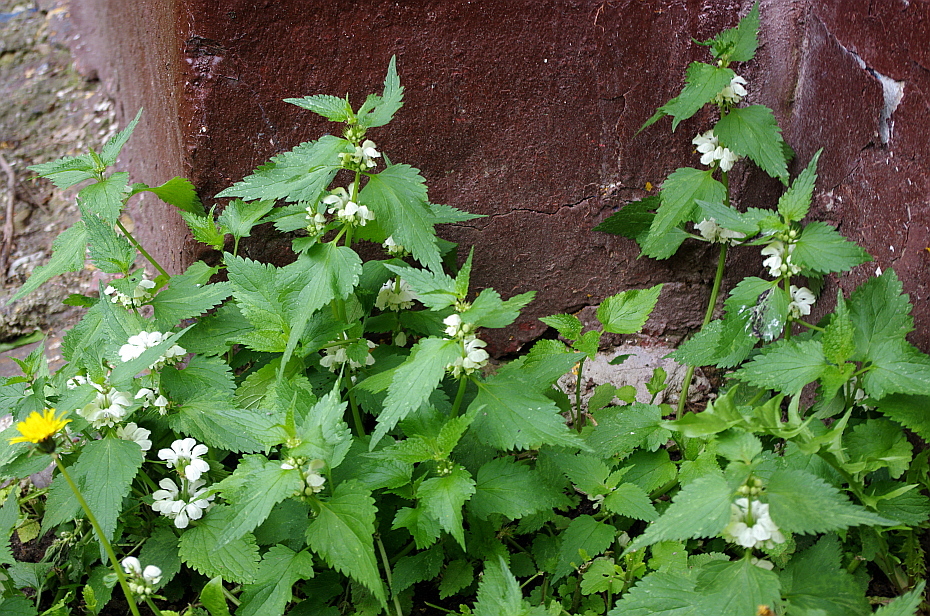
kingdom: Plantae
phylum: Tracheophyta
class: Magnoliopsida
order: Lamiales
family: Lamiaceae
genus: Lamium
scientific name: Lamium album
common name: White dead-nettle
